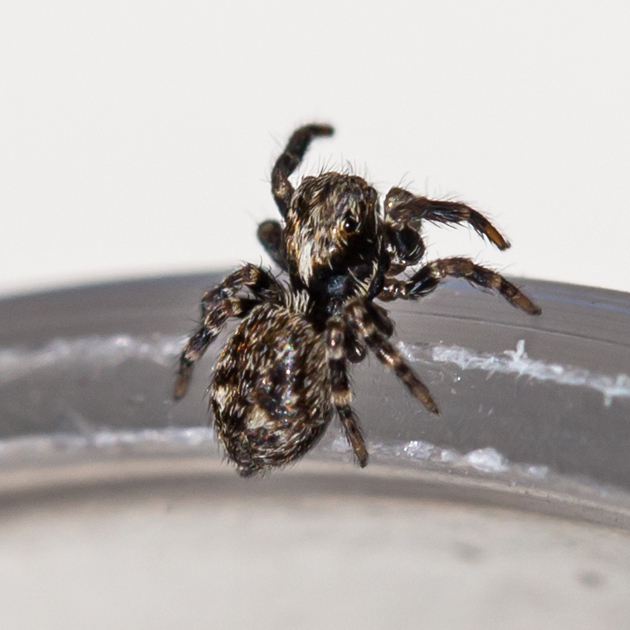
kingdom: Animalia
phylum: Arthropoda
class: Arachnida
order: Araneae
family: Salticidae
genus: Pseudeuophrys
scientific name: Pseudeuophrys erratica
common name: Jumping spider
